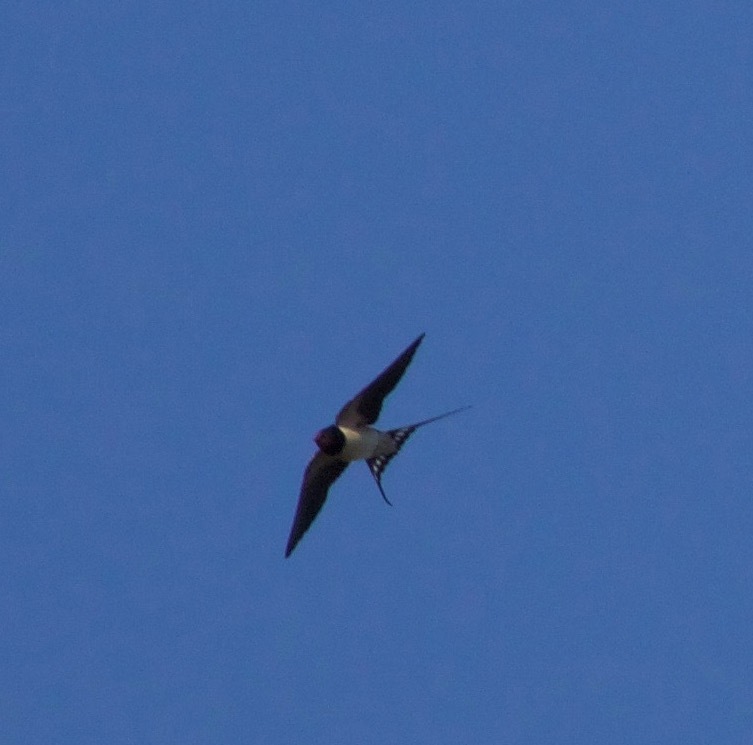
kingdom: Animalia
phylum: Chordata
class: Aves
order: Passeriformes
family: Hirundinidae
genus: Hirundo
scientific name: Hirundo rustica
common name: Barn swallow
